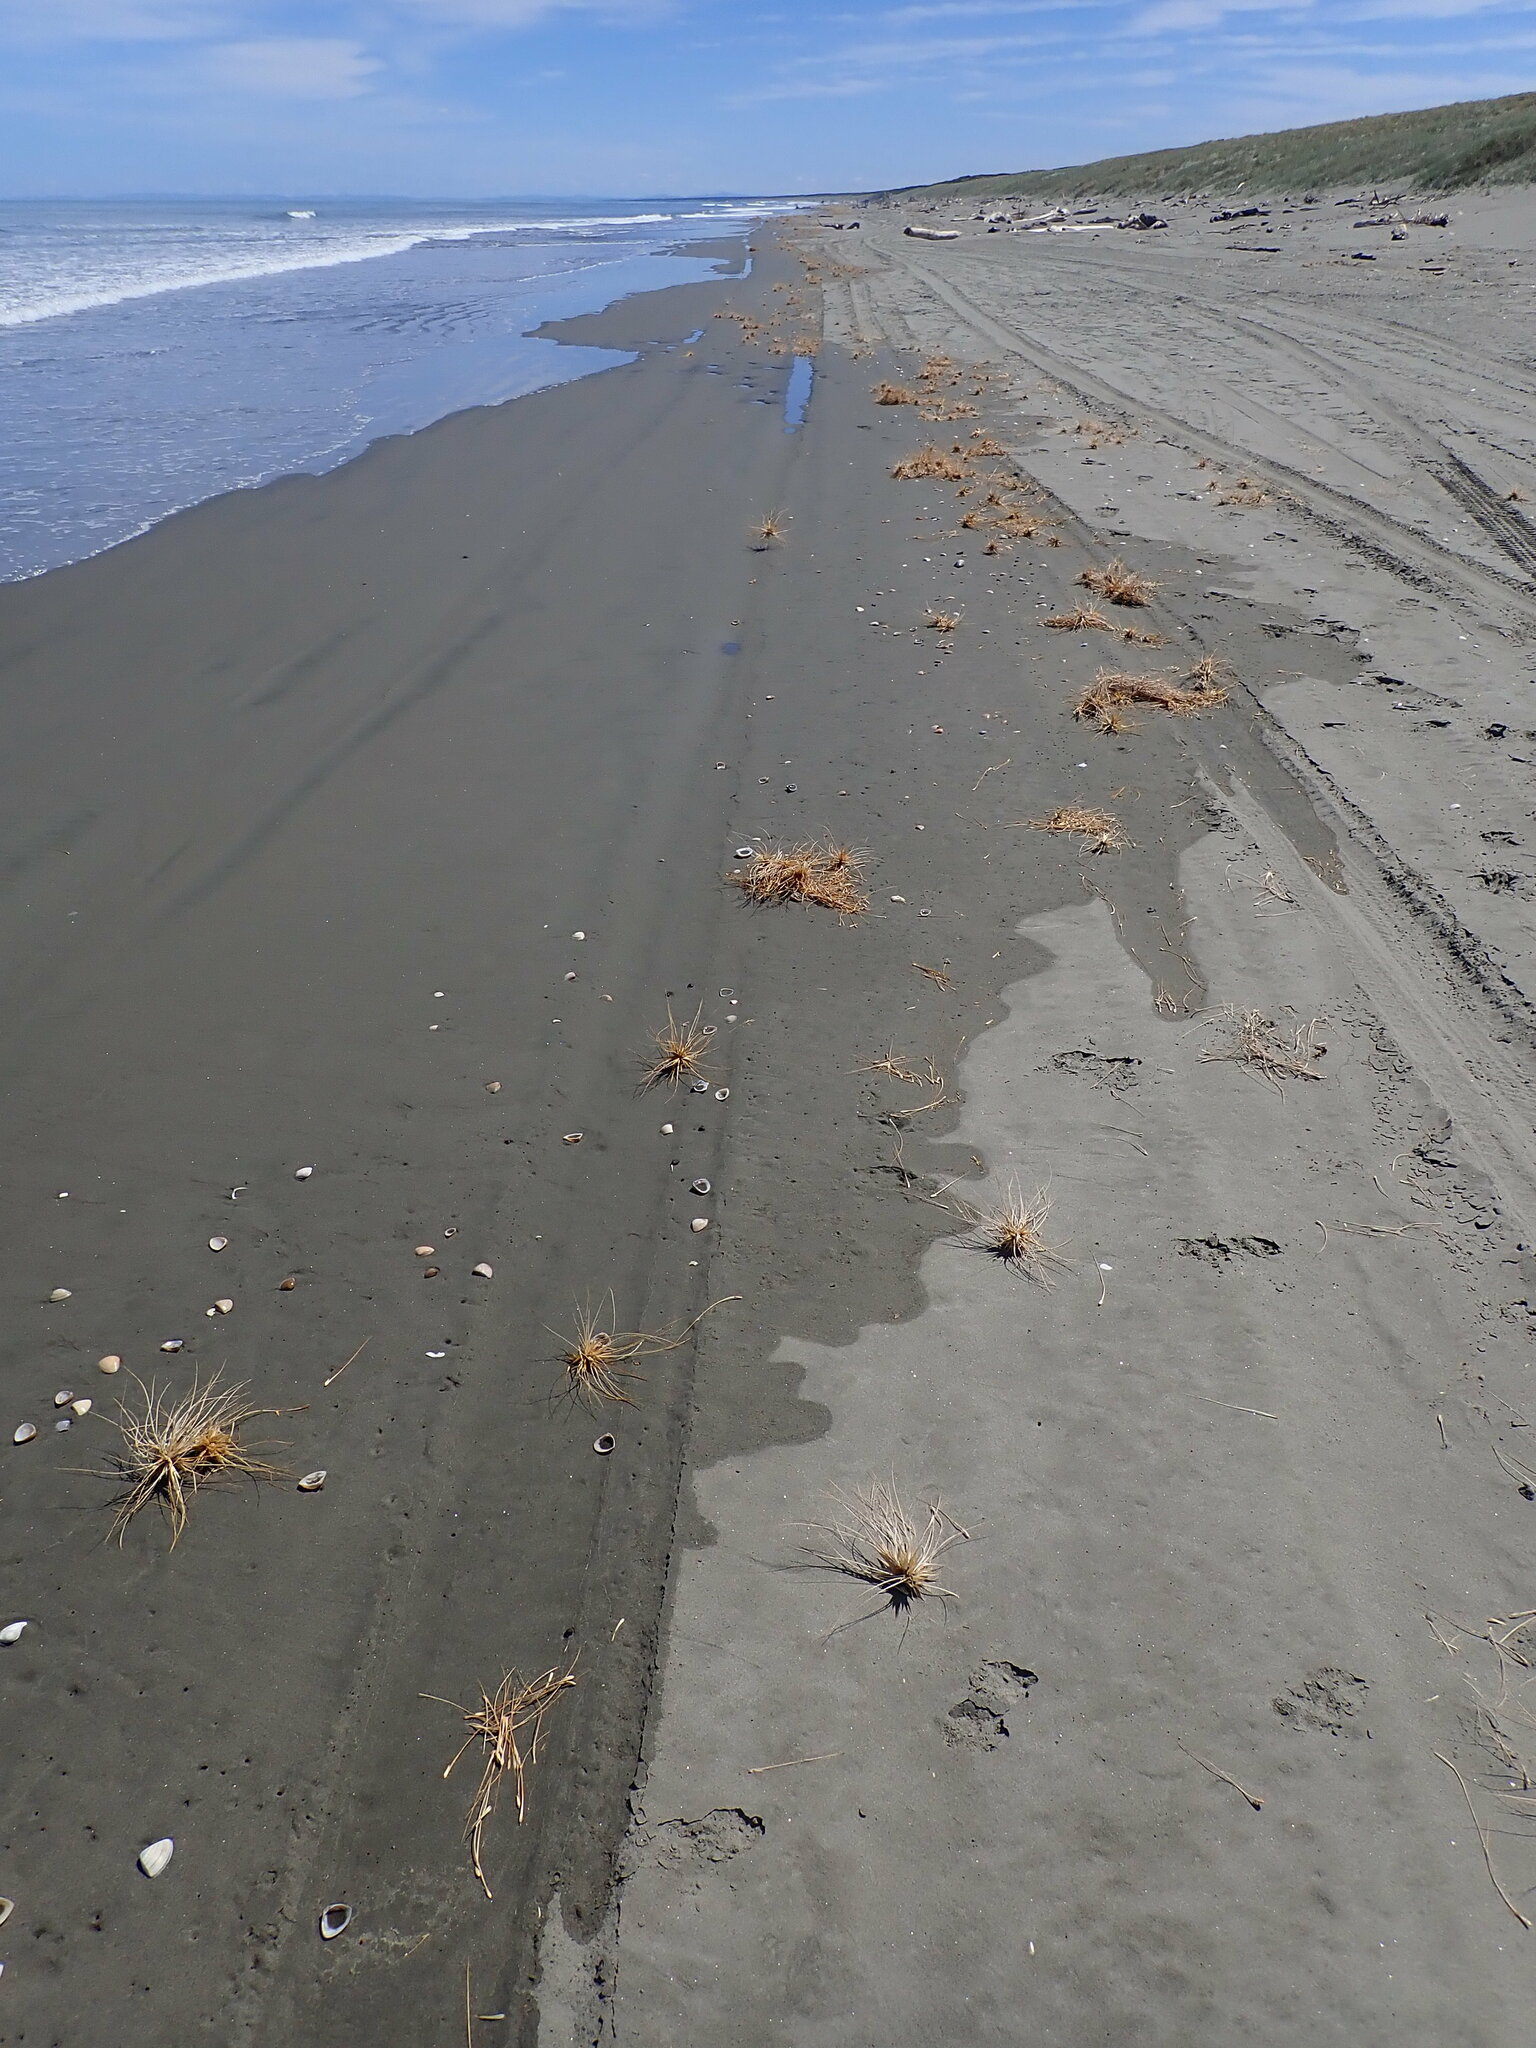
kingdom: Plantae
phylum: Tracheophyta
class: Liliopsida
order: Poales
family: Poaceae
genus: Spinifex
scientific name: Spinifex sericeus
